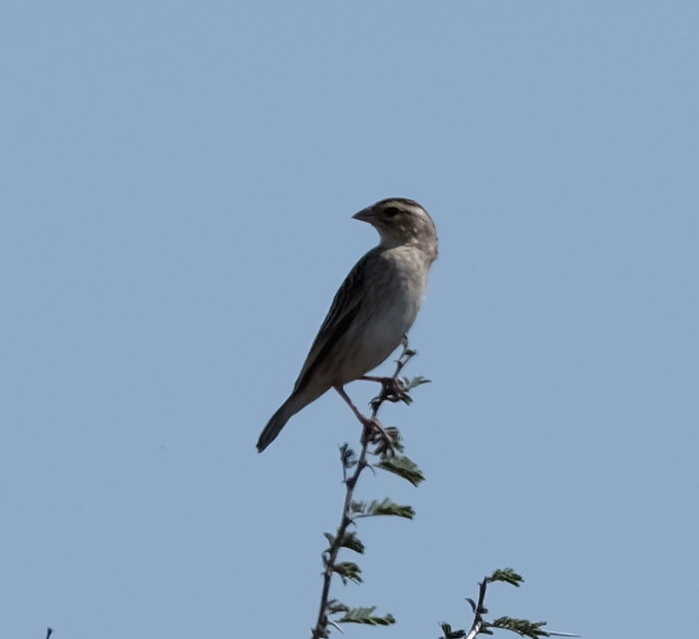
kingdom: Animalia
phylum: Chordata
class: Aves
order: Passeriformes
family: Ploceidae
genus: Euplectes
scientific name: Euplectes albonotatus
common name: White-winged widowbird
